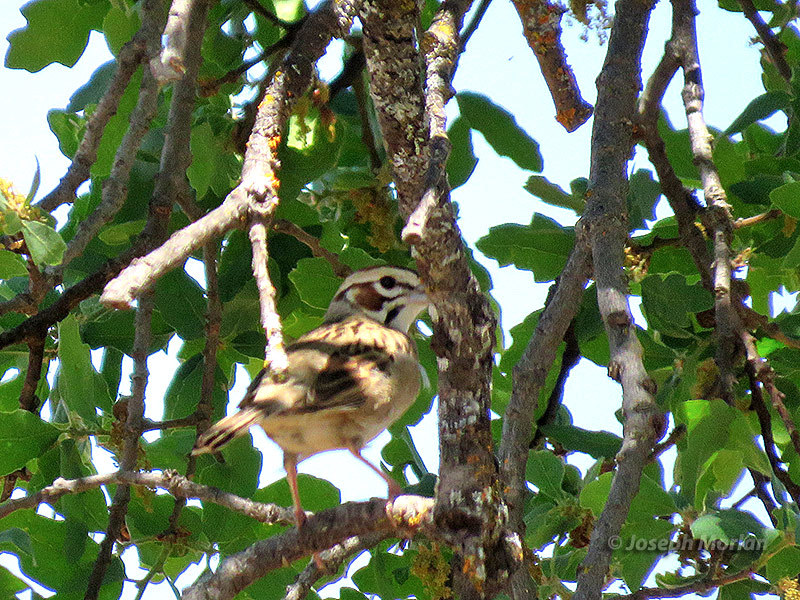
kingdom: Animalia
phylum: Chordata
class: Aves
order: Passeriformes
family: Passerellidae
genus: Chondestes
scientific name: Chondestes grammacus
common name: Lark sparrow
